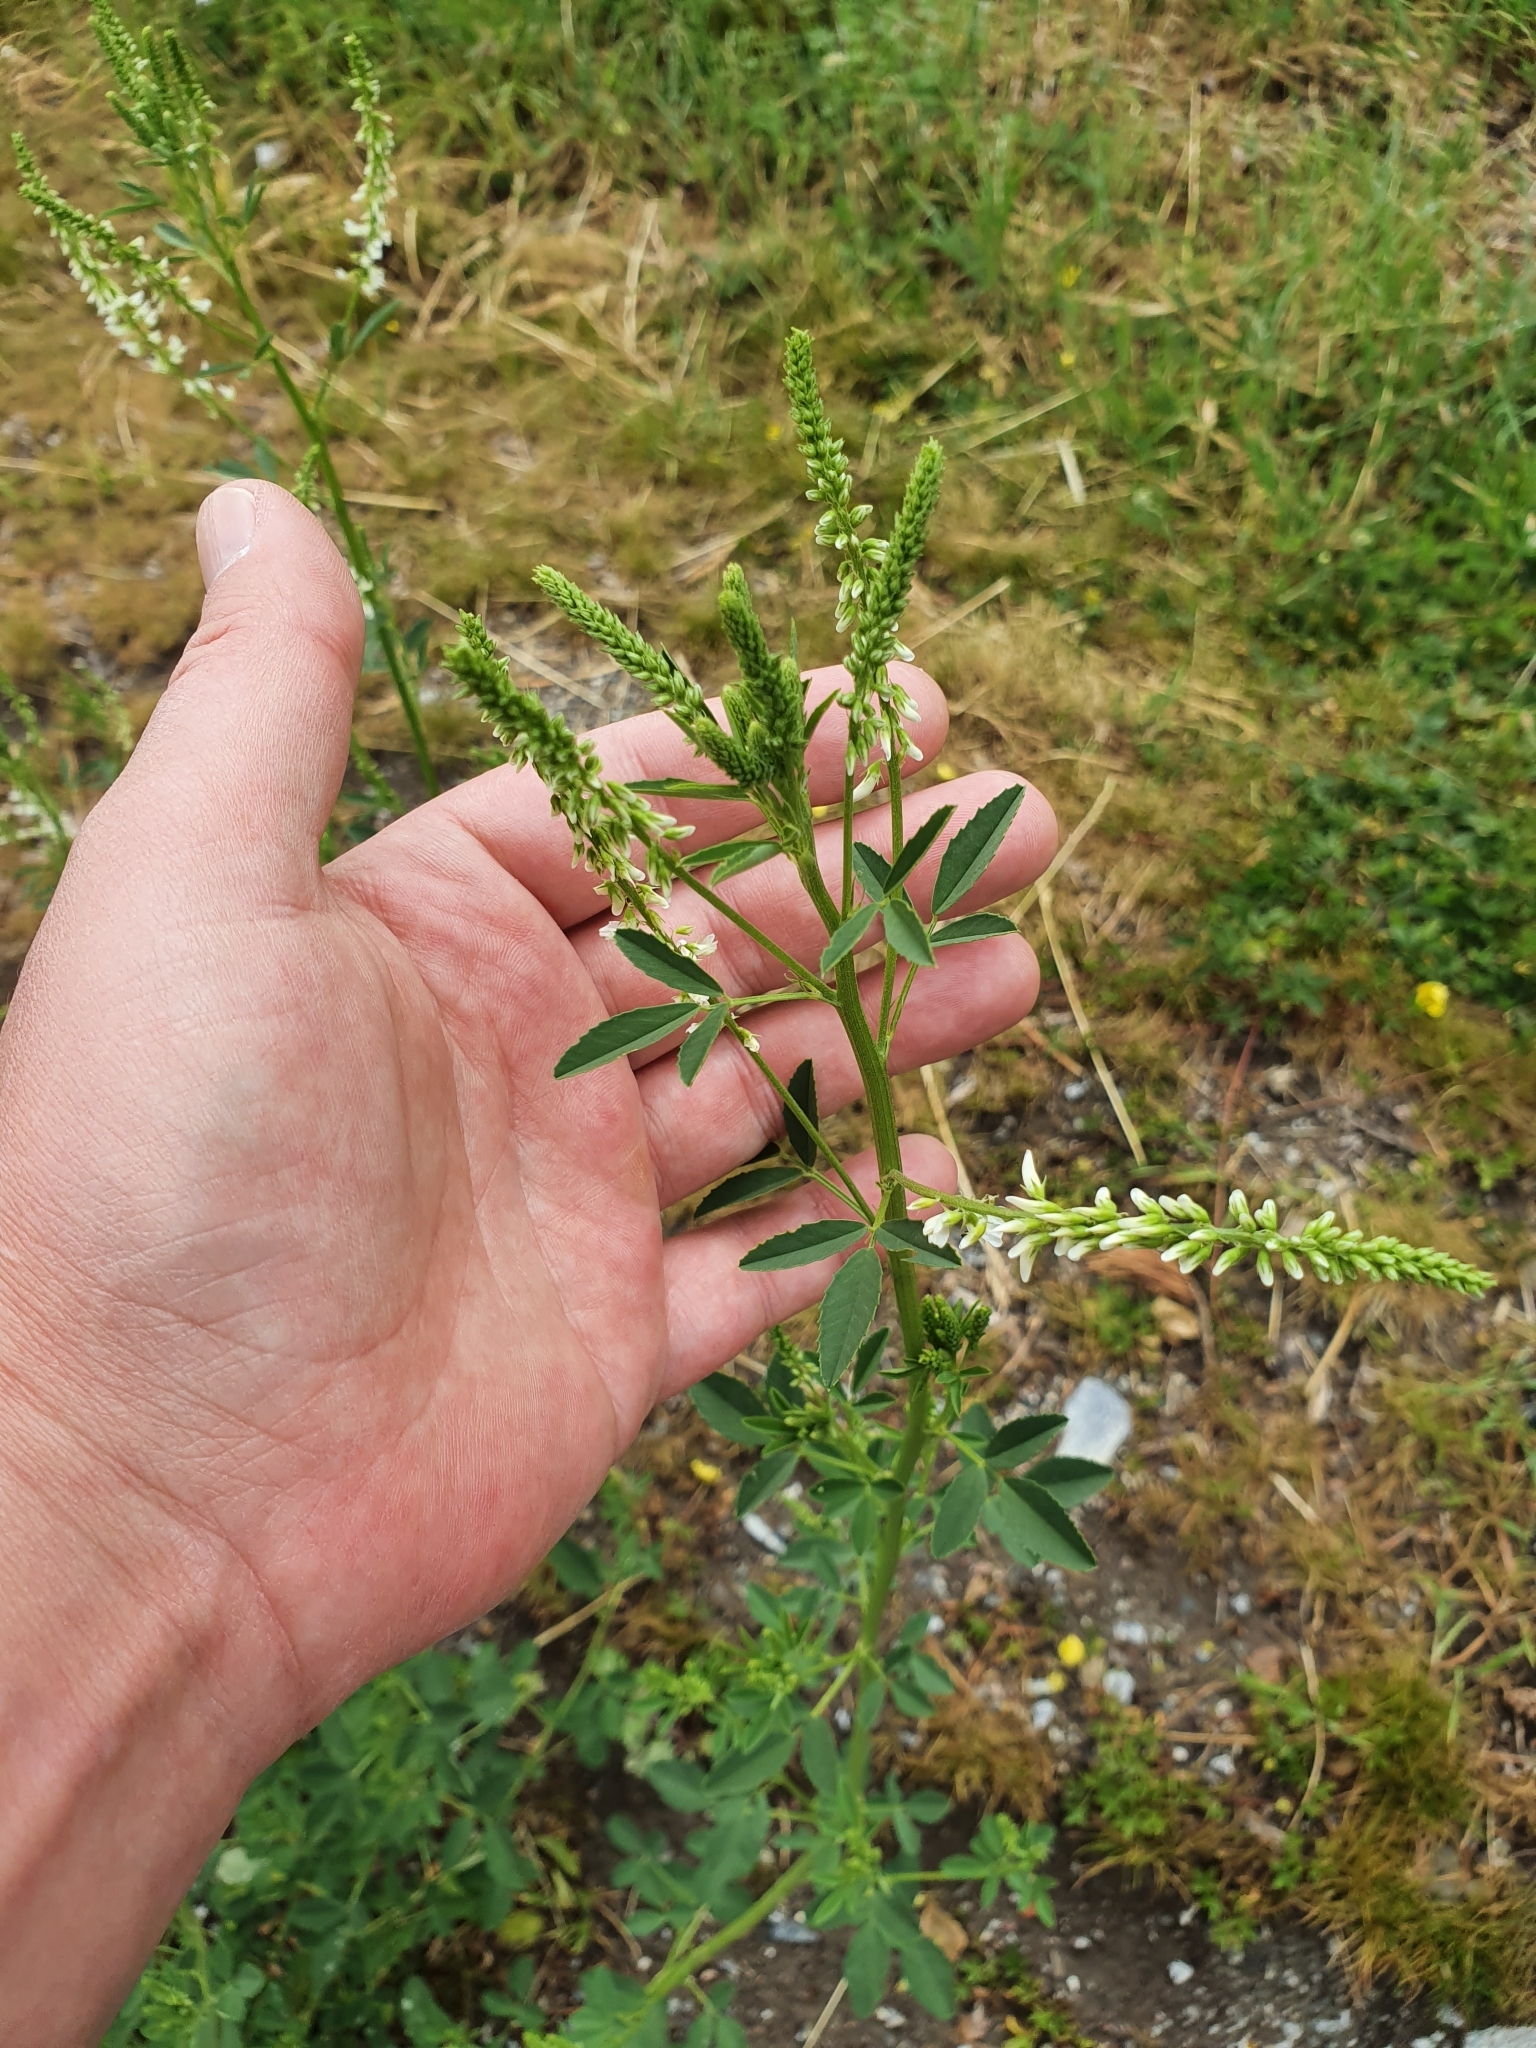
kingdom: Plantae
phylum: Tracheophyta
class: Magnoliopsida
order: Fabales
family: Fabaceae
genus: Melilotus
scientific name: Melilotus albus
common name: White melilot
